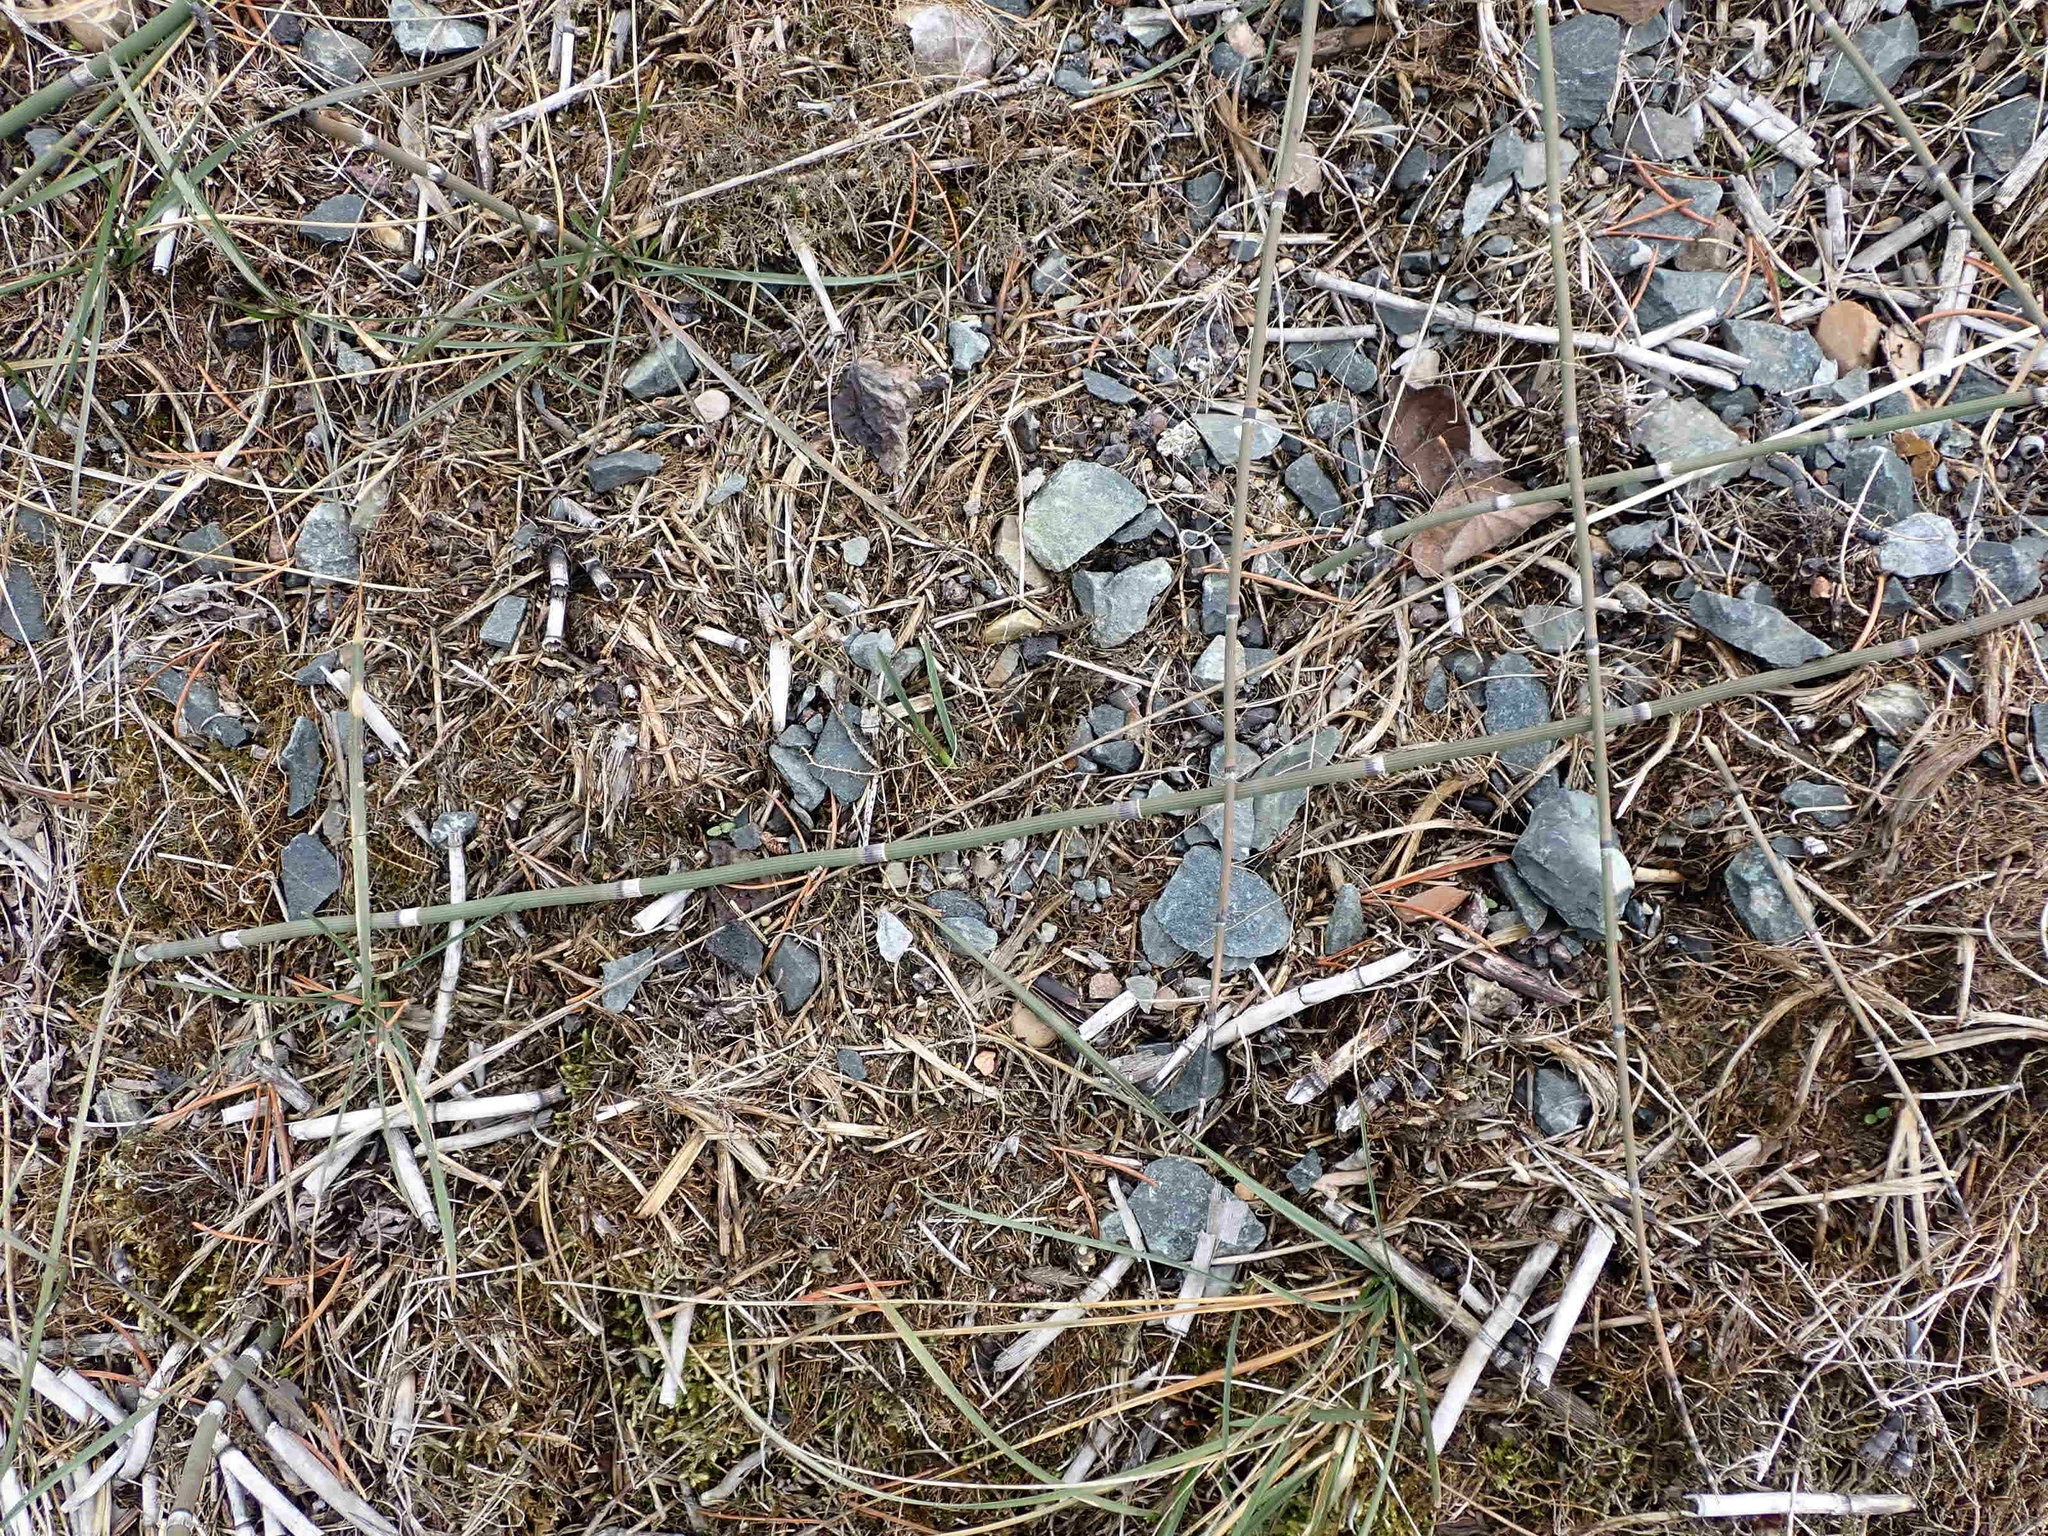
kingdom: Plantae
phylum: Tracheophyta
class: Magnoliopsida
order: Lamiales
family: Scrophulariaceae
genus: Verbascum
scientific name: Verbascum thapsus
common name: Common mullein
